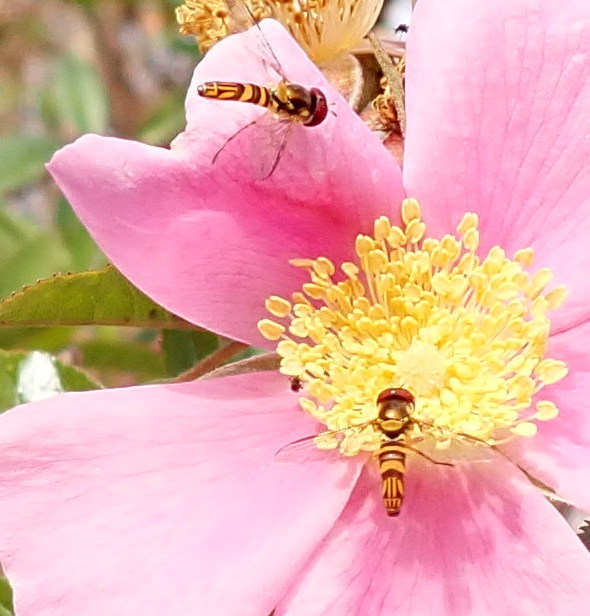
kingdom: Animalia
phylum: Arthropoda
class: Insecta
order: Diptera
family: Syrphidae
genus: Allograpta
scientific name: Allograpta obliqua
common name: Common oblique syrphid
